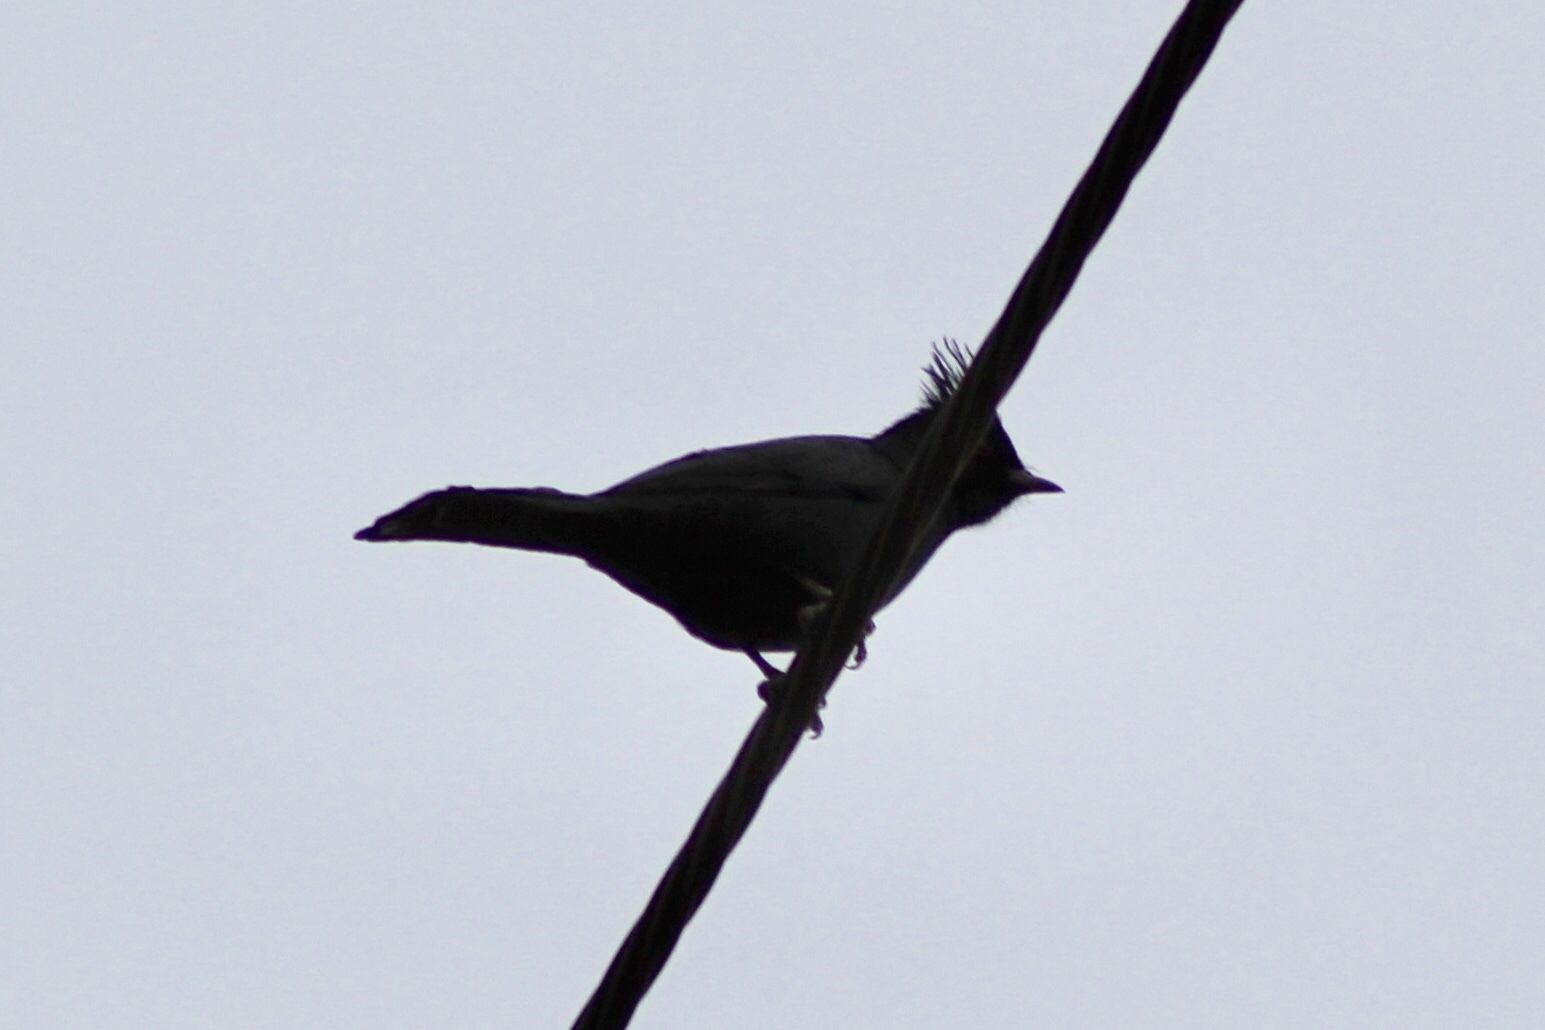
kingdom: Animalia
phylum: Chordata
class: Aves
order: Passeriformes
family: Ptilogonatidae
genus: Phainopepla
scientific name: Phainopepla nitens
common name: Phainopepla
